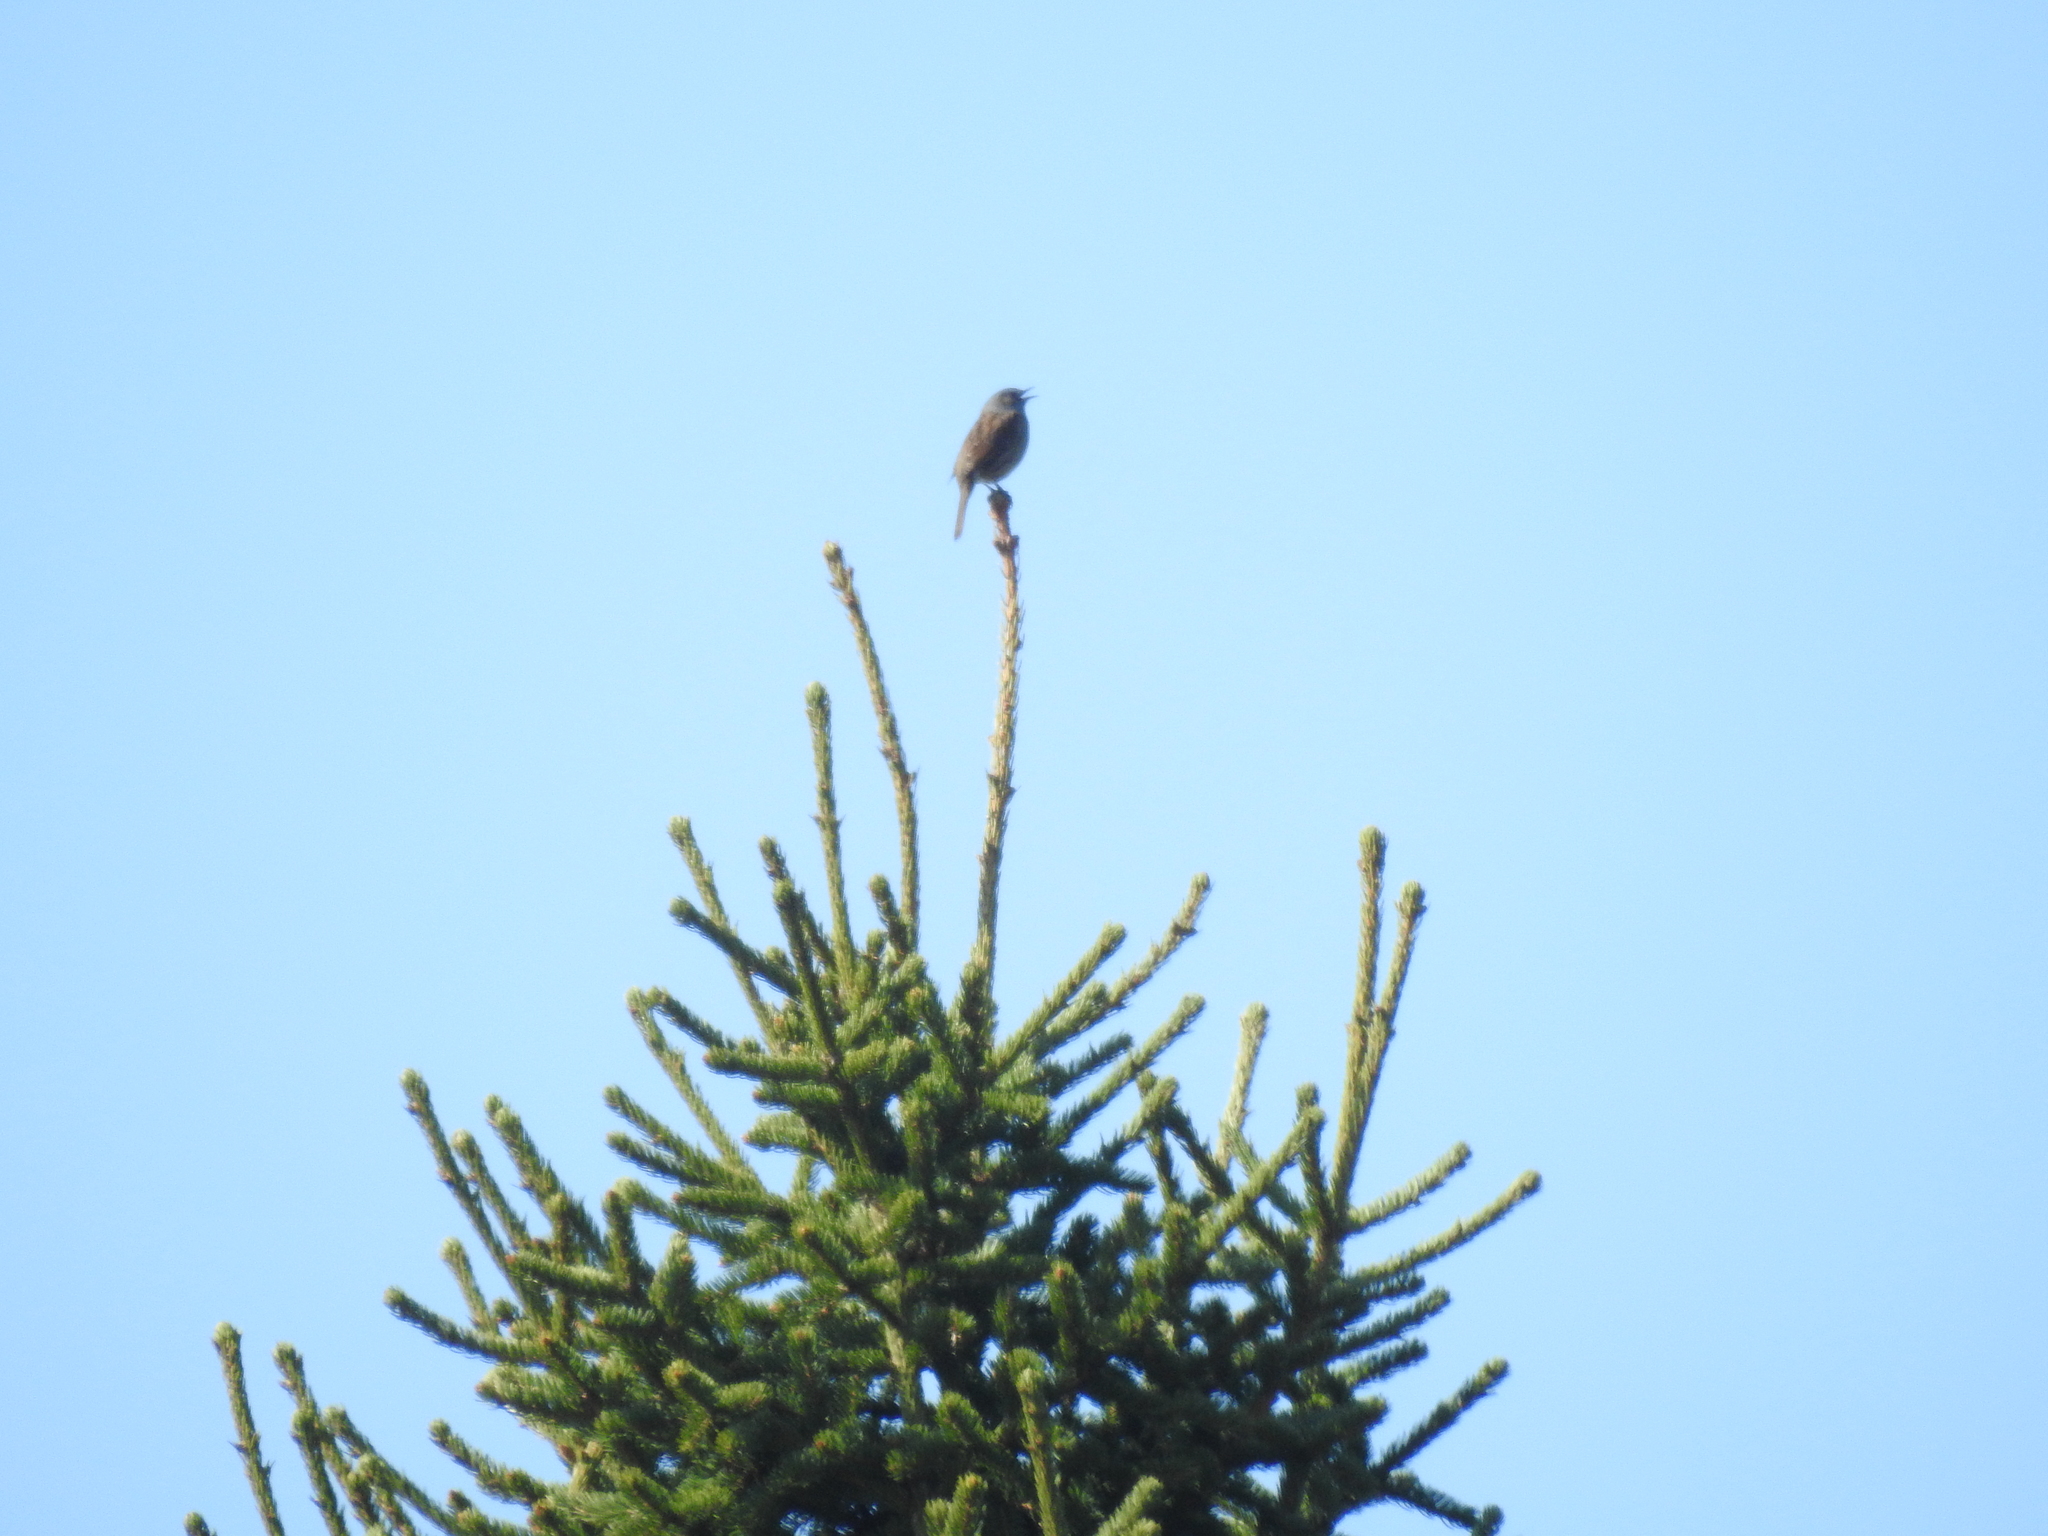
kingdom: Animalia
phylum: Chordata
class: Aves
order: Passeriformes
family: Prunellidae
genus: Prunella
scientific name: Prunella modularis
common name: Dunnock
